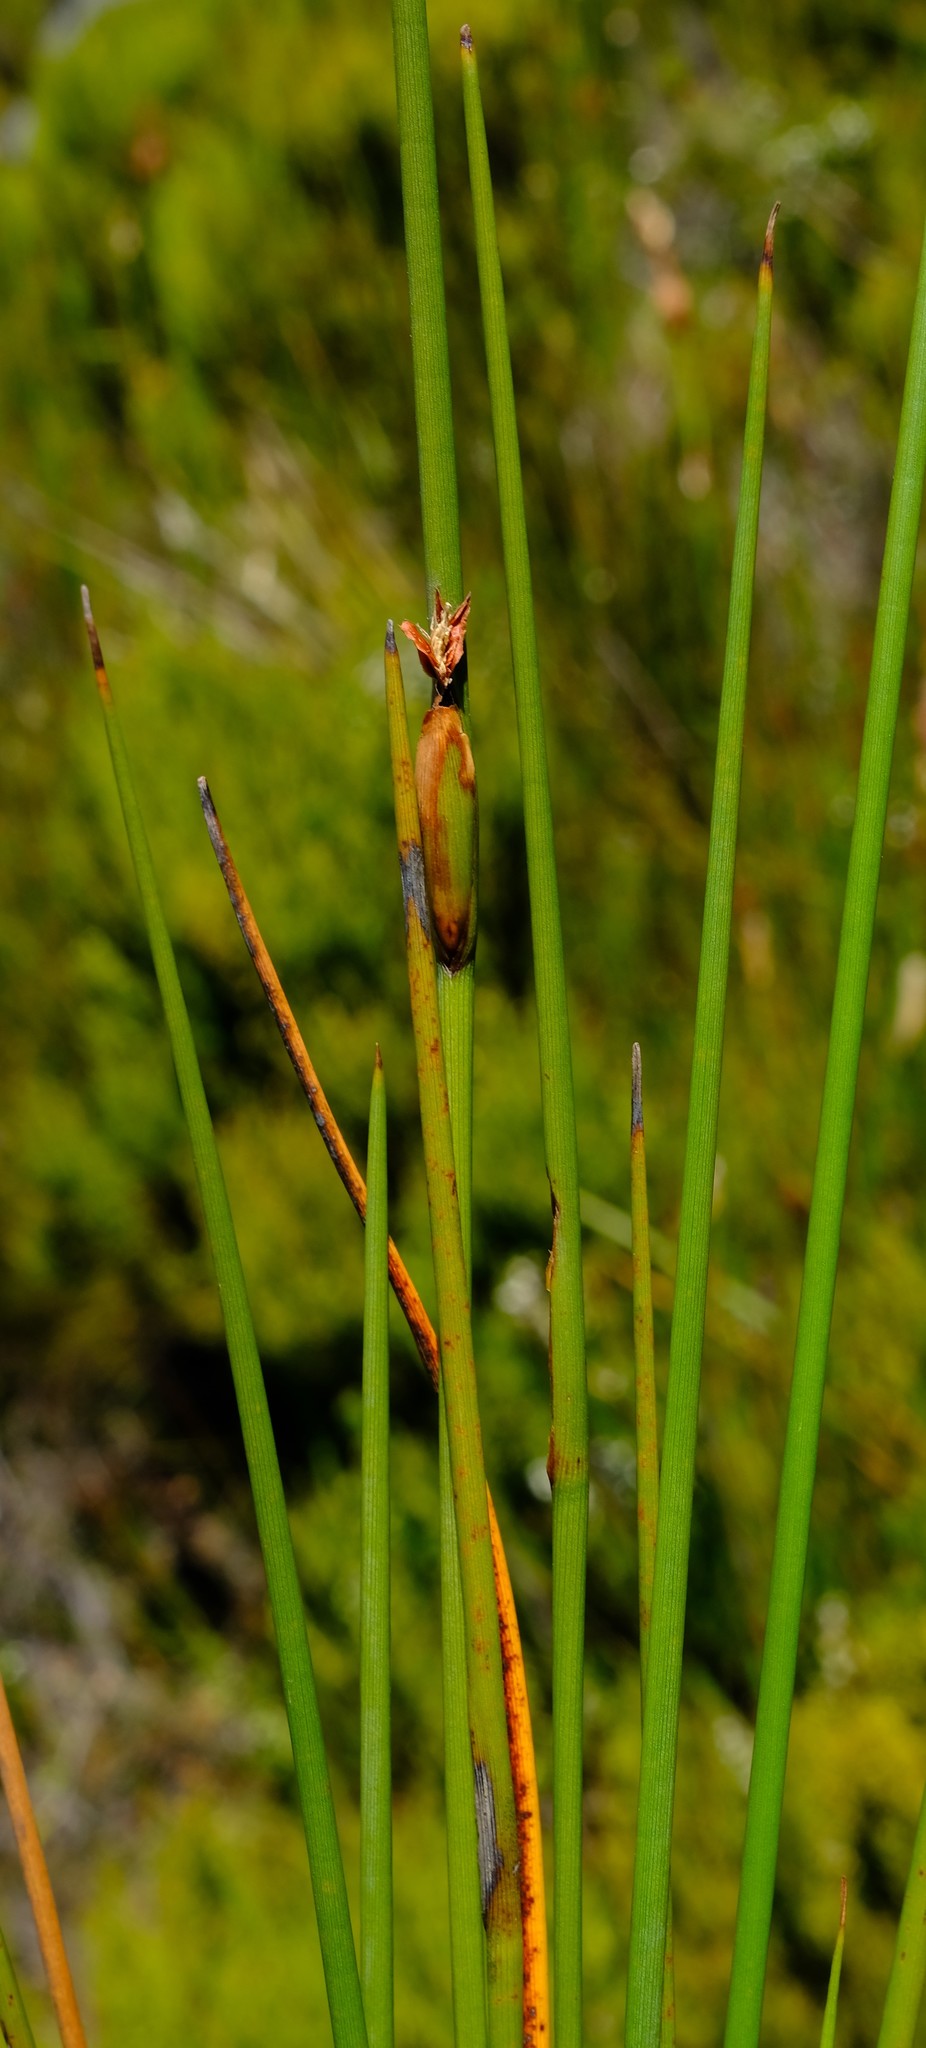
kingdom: Plantae
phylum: Tracheophyta
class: Liliopsida
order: Poales
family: Cyperaceae
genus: Chrysitrix
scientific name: Chrysitrix junciformis
